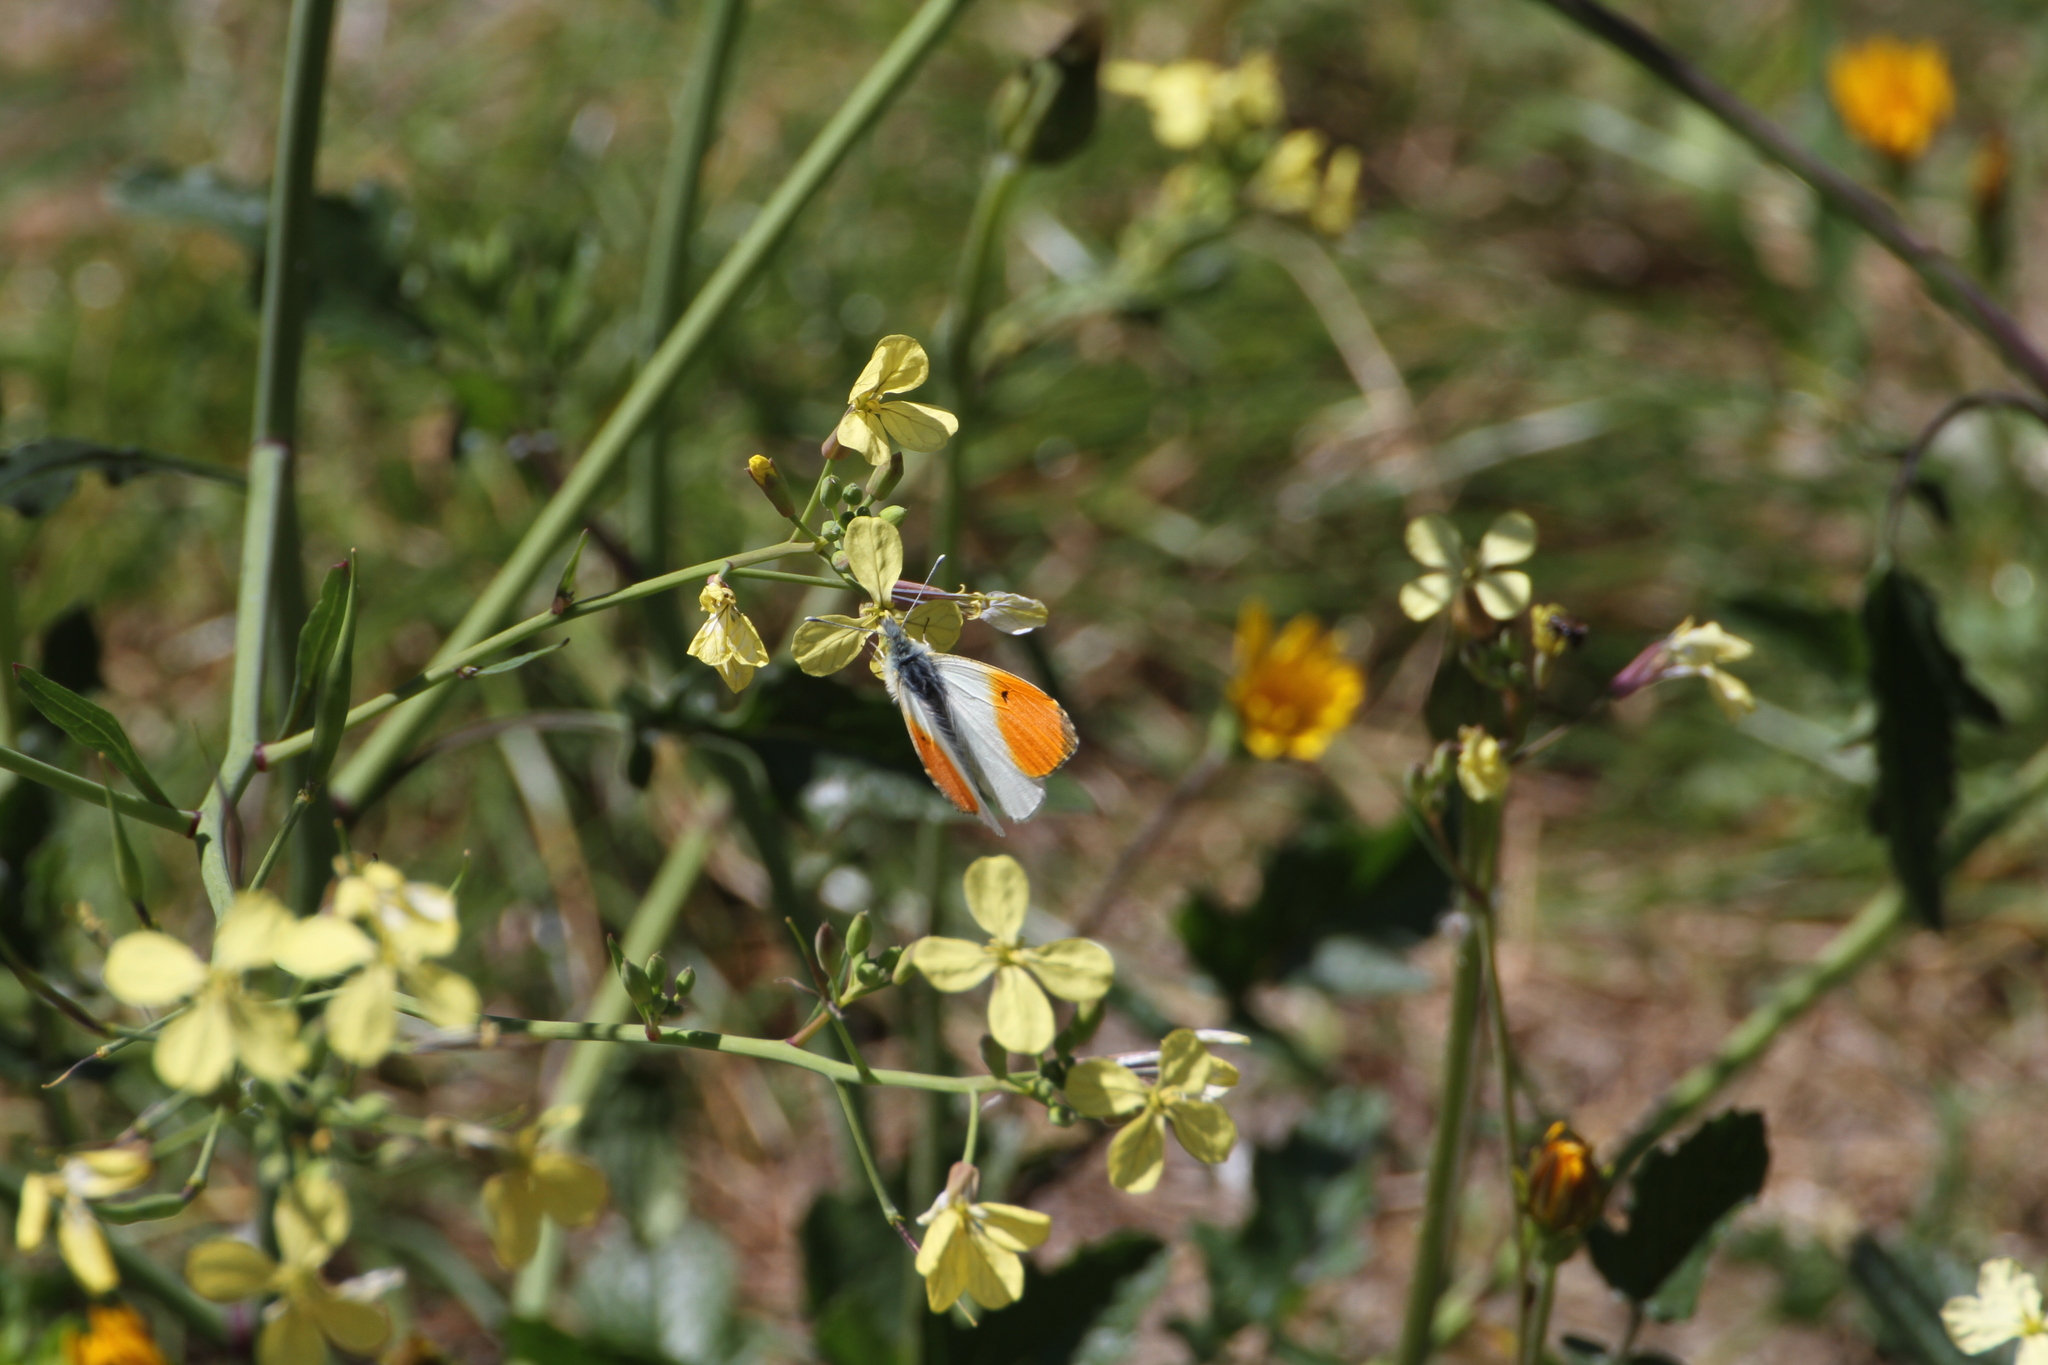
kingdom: Animalia
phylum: Arthropoda
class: Insecta
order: Lepidoptera
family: Pieridae
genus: Anthocharis
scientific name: Anthocharis cardamines
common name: Orange-tip
